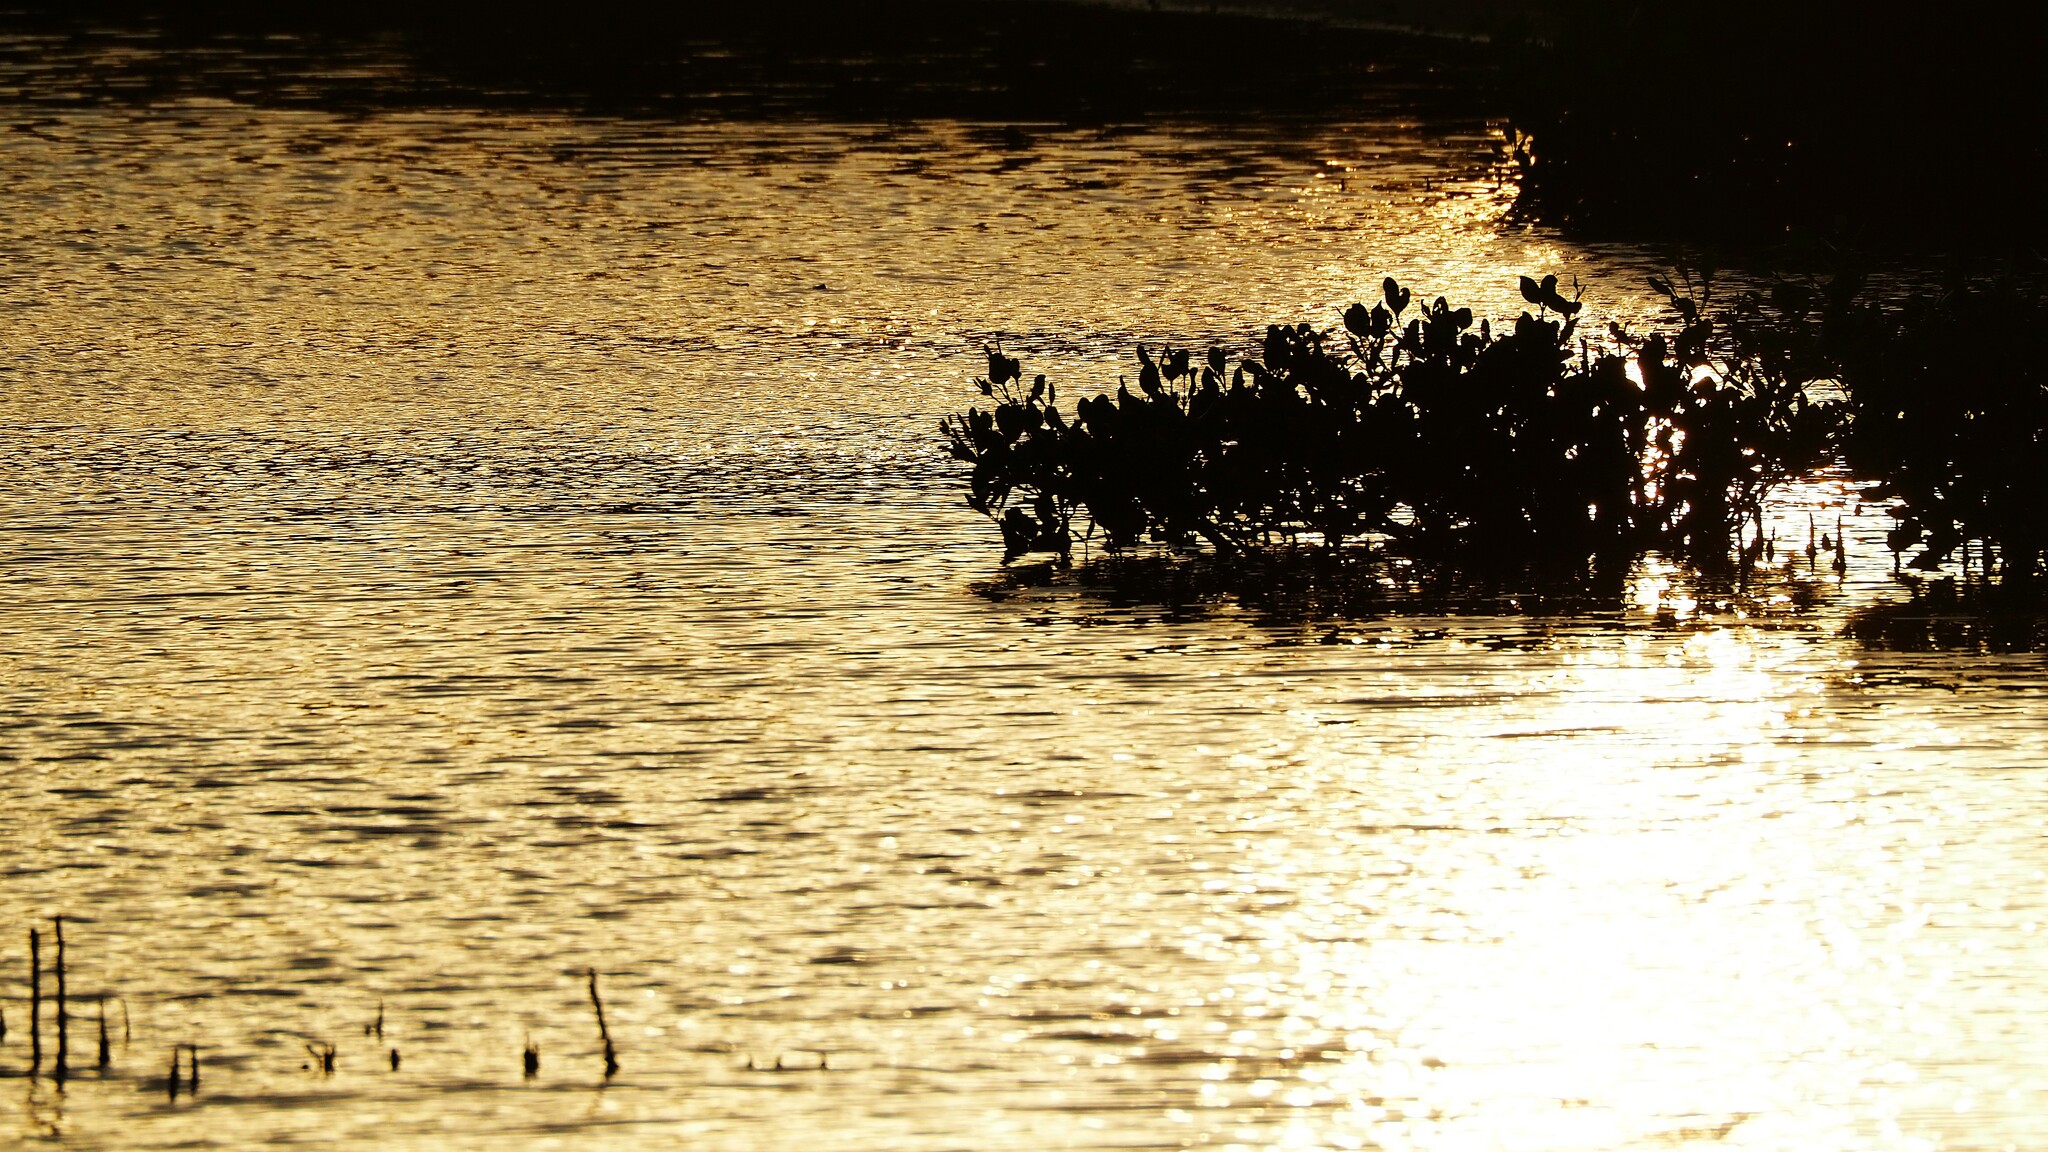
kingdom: Plantae
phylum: Tracheophyta
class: Magnoliopsida
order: Lamiales
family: Acanthaceae
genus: Avicennia
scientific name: Avicennia marina
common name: Gray mangrove
